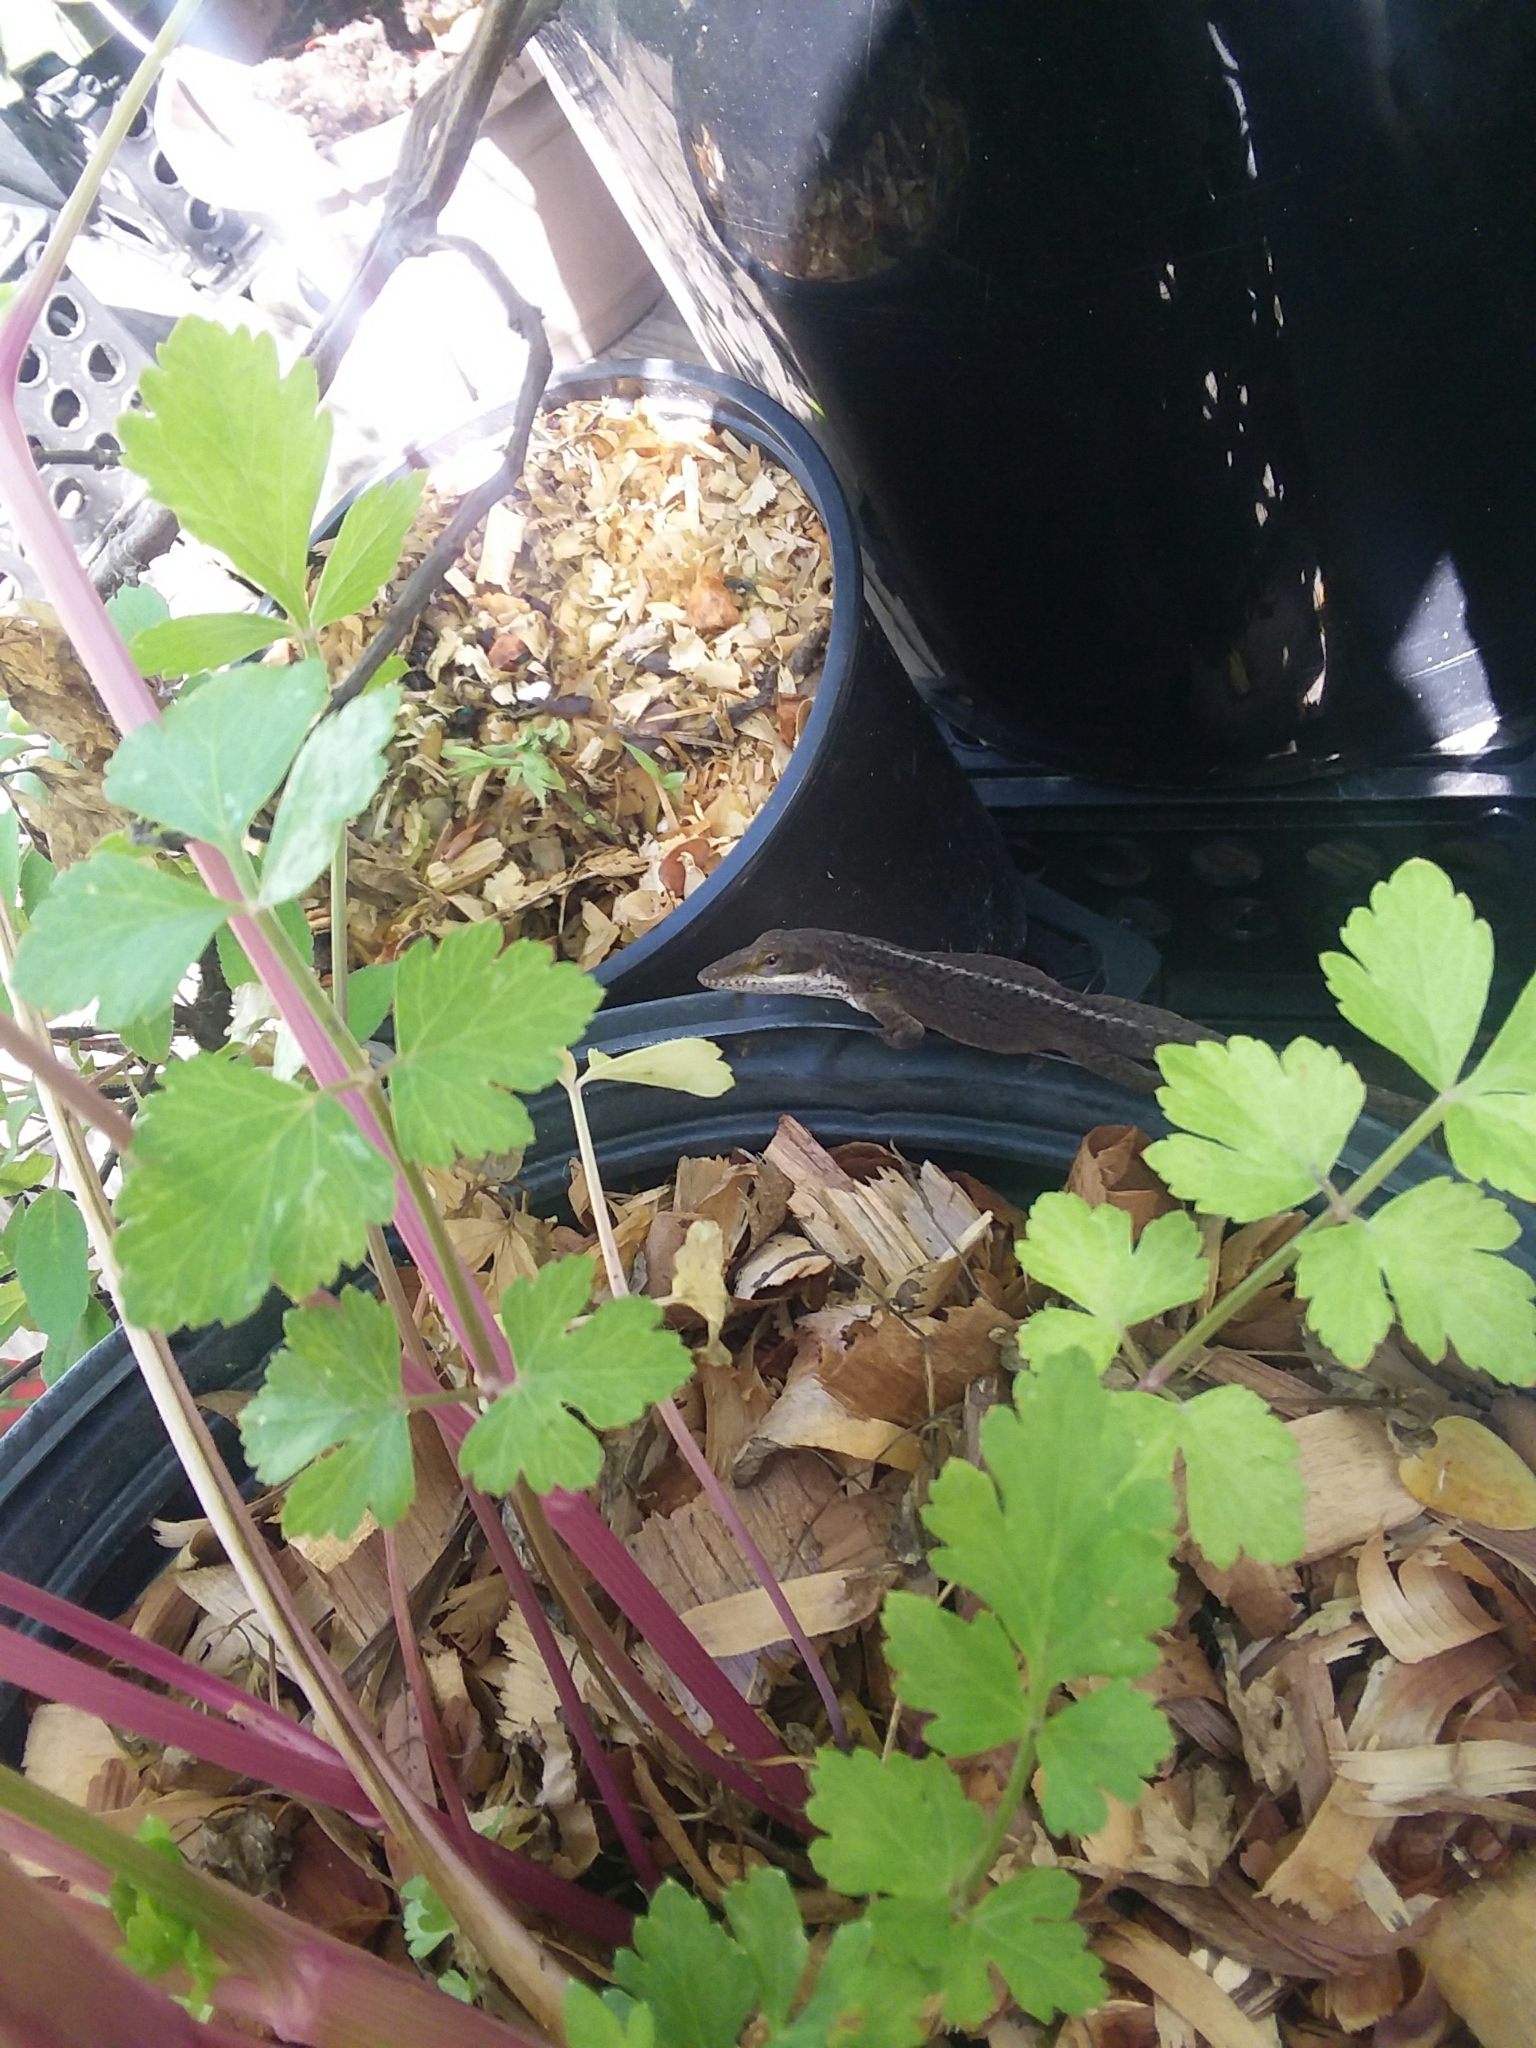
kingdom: Animalia
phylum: Chordata
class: Squamata
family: Dactyloidae
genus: Anolis
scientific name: Anolis carolinensis
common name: Green anole
